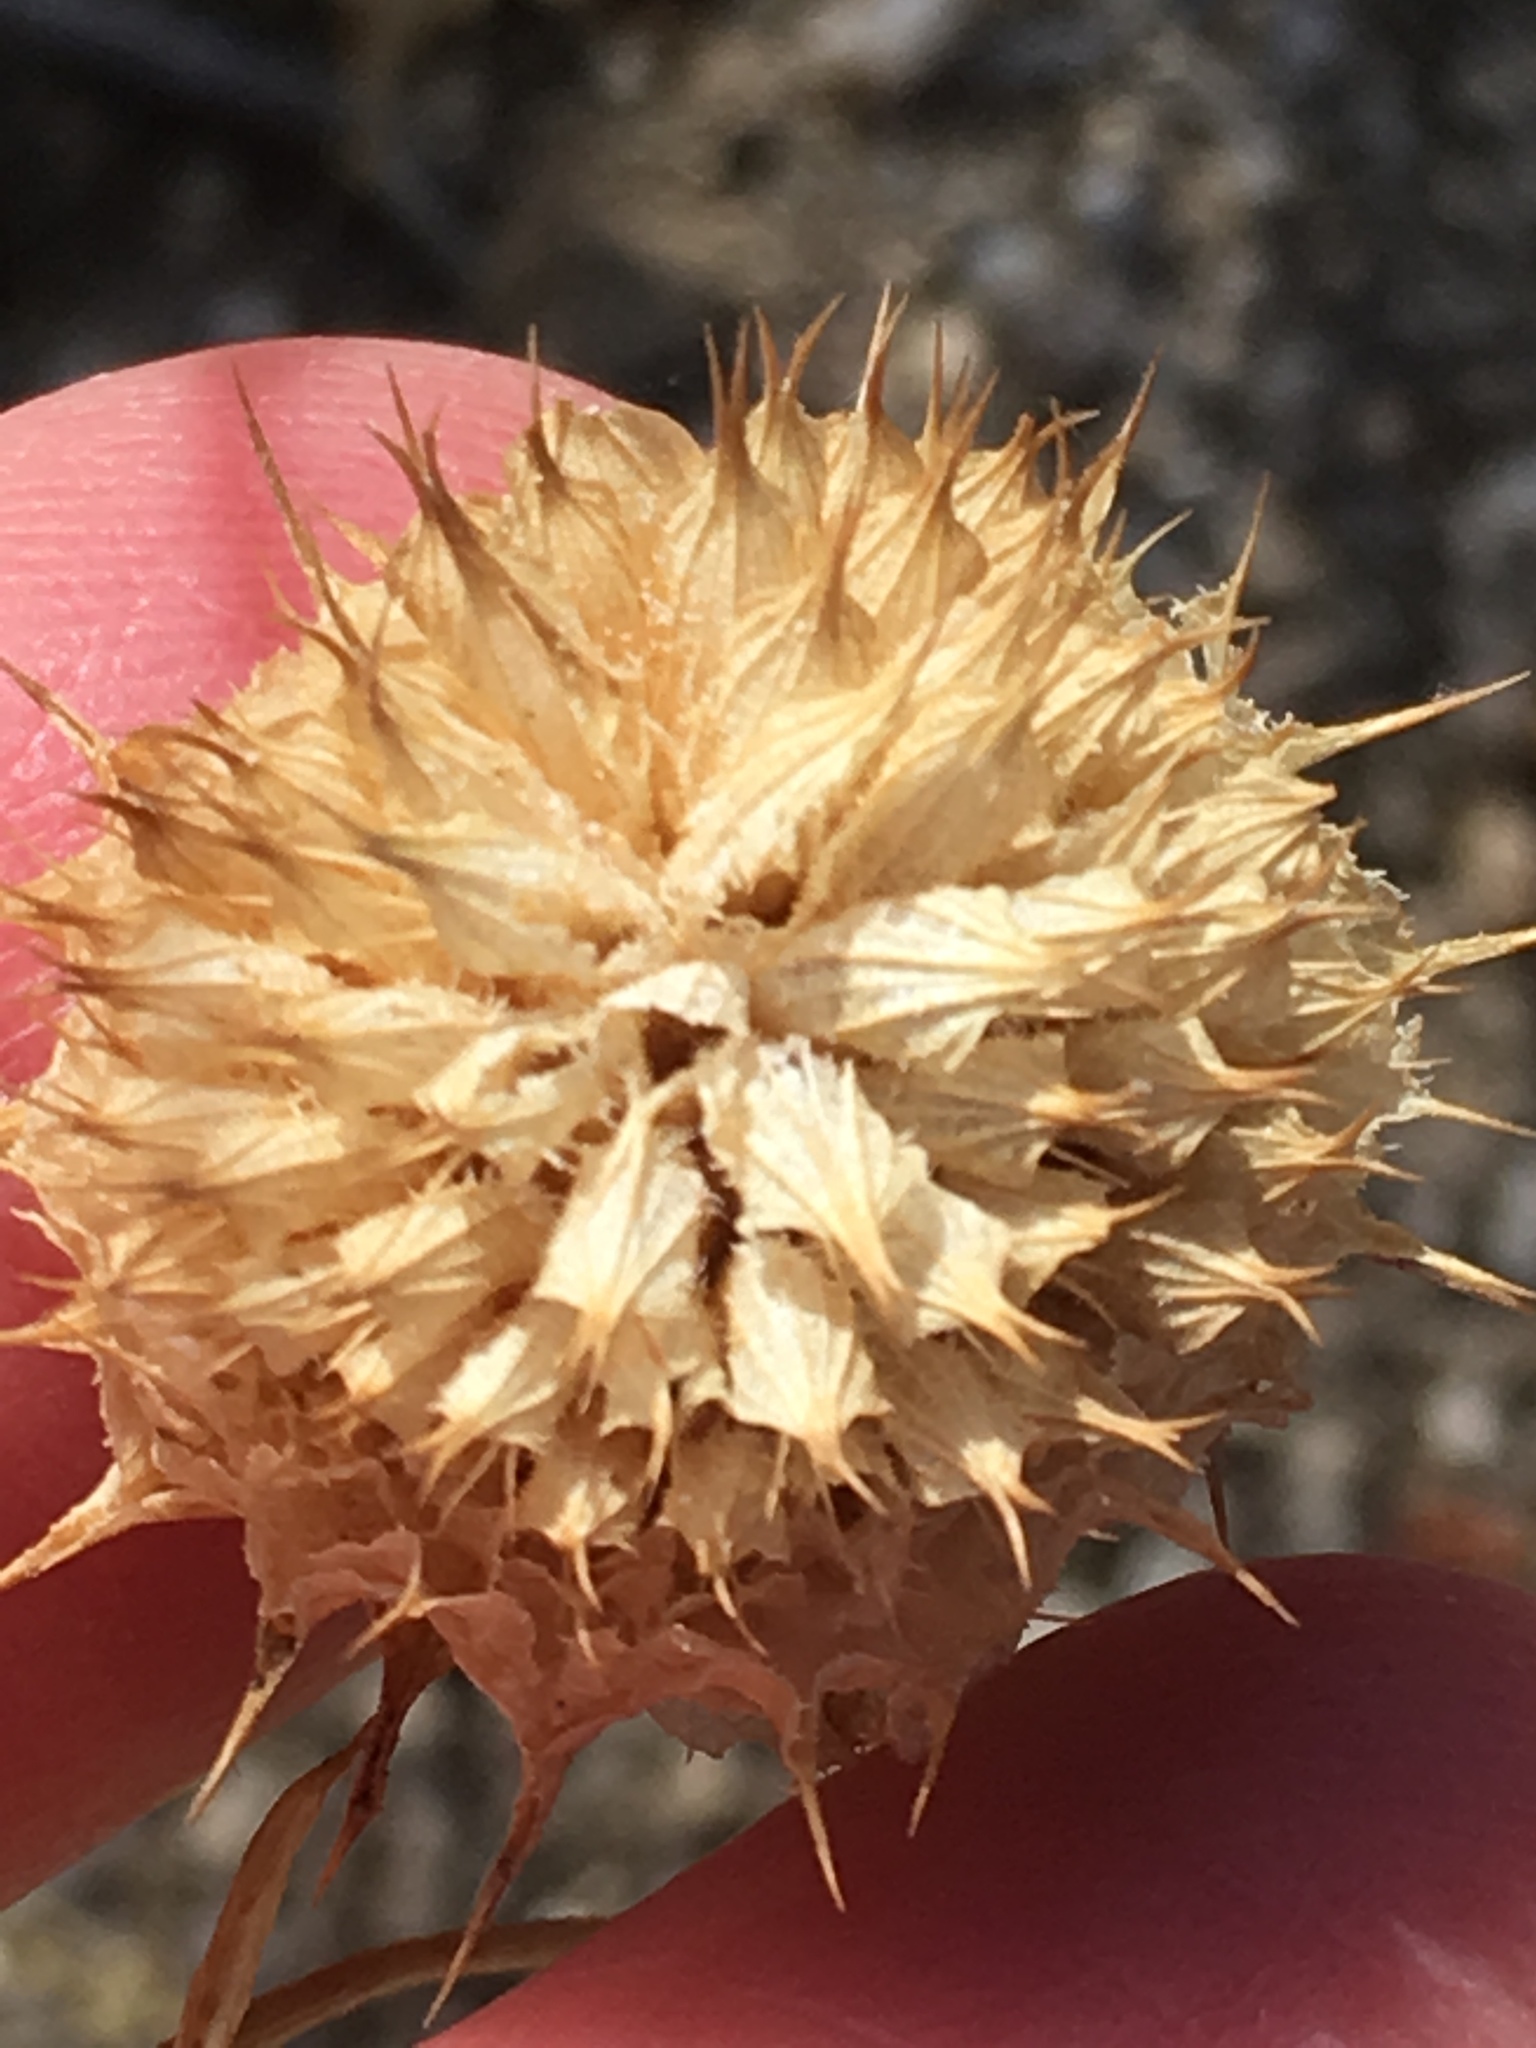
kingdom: Plantae
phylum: Tracheophyta
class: Magnoliopsida
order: Lamiales
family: Lamiaceae
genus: Salvia
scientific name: Salvia columbariae
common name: Chia
